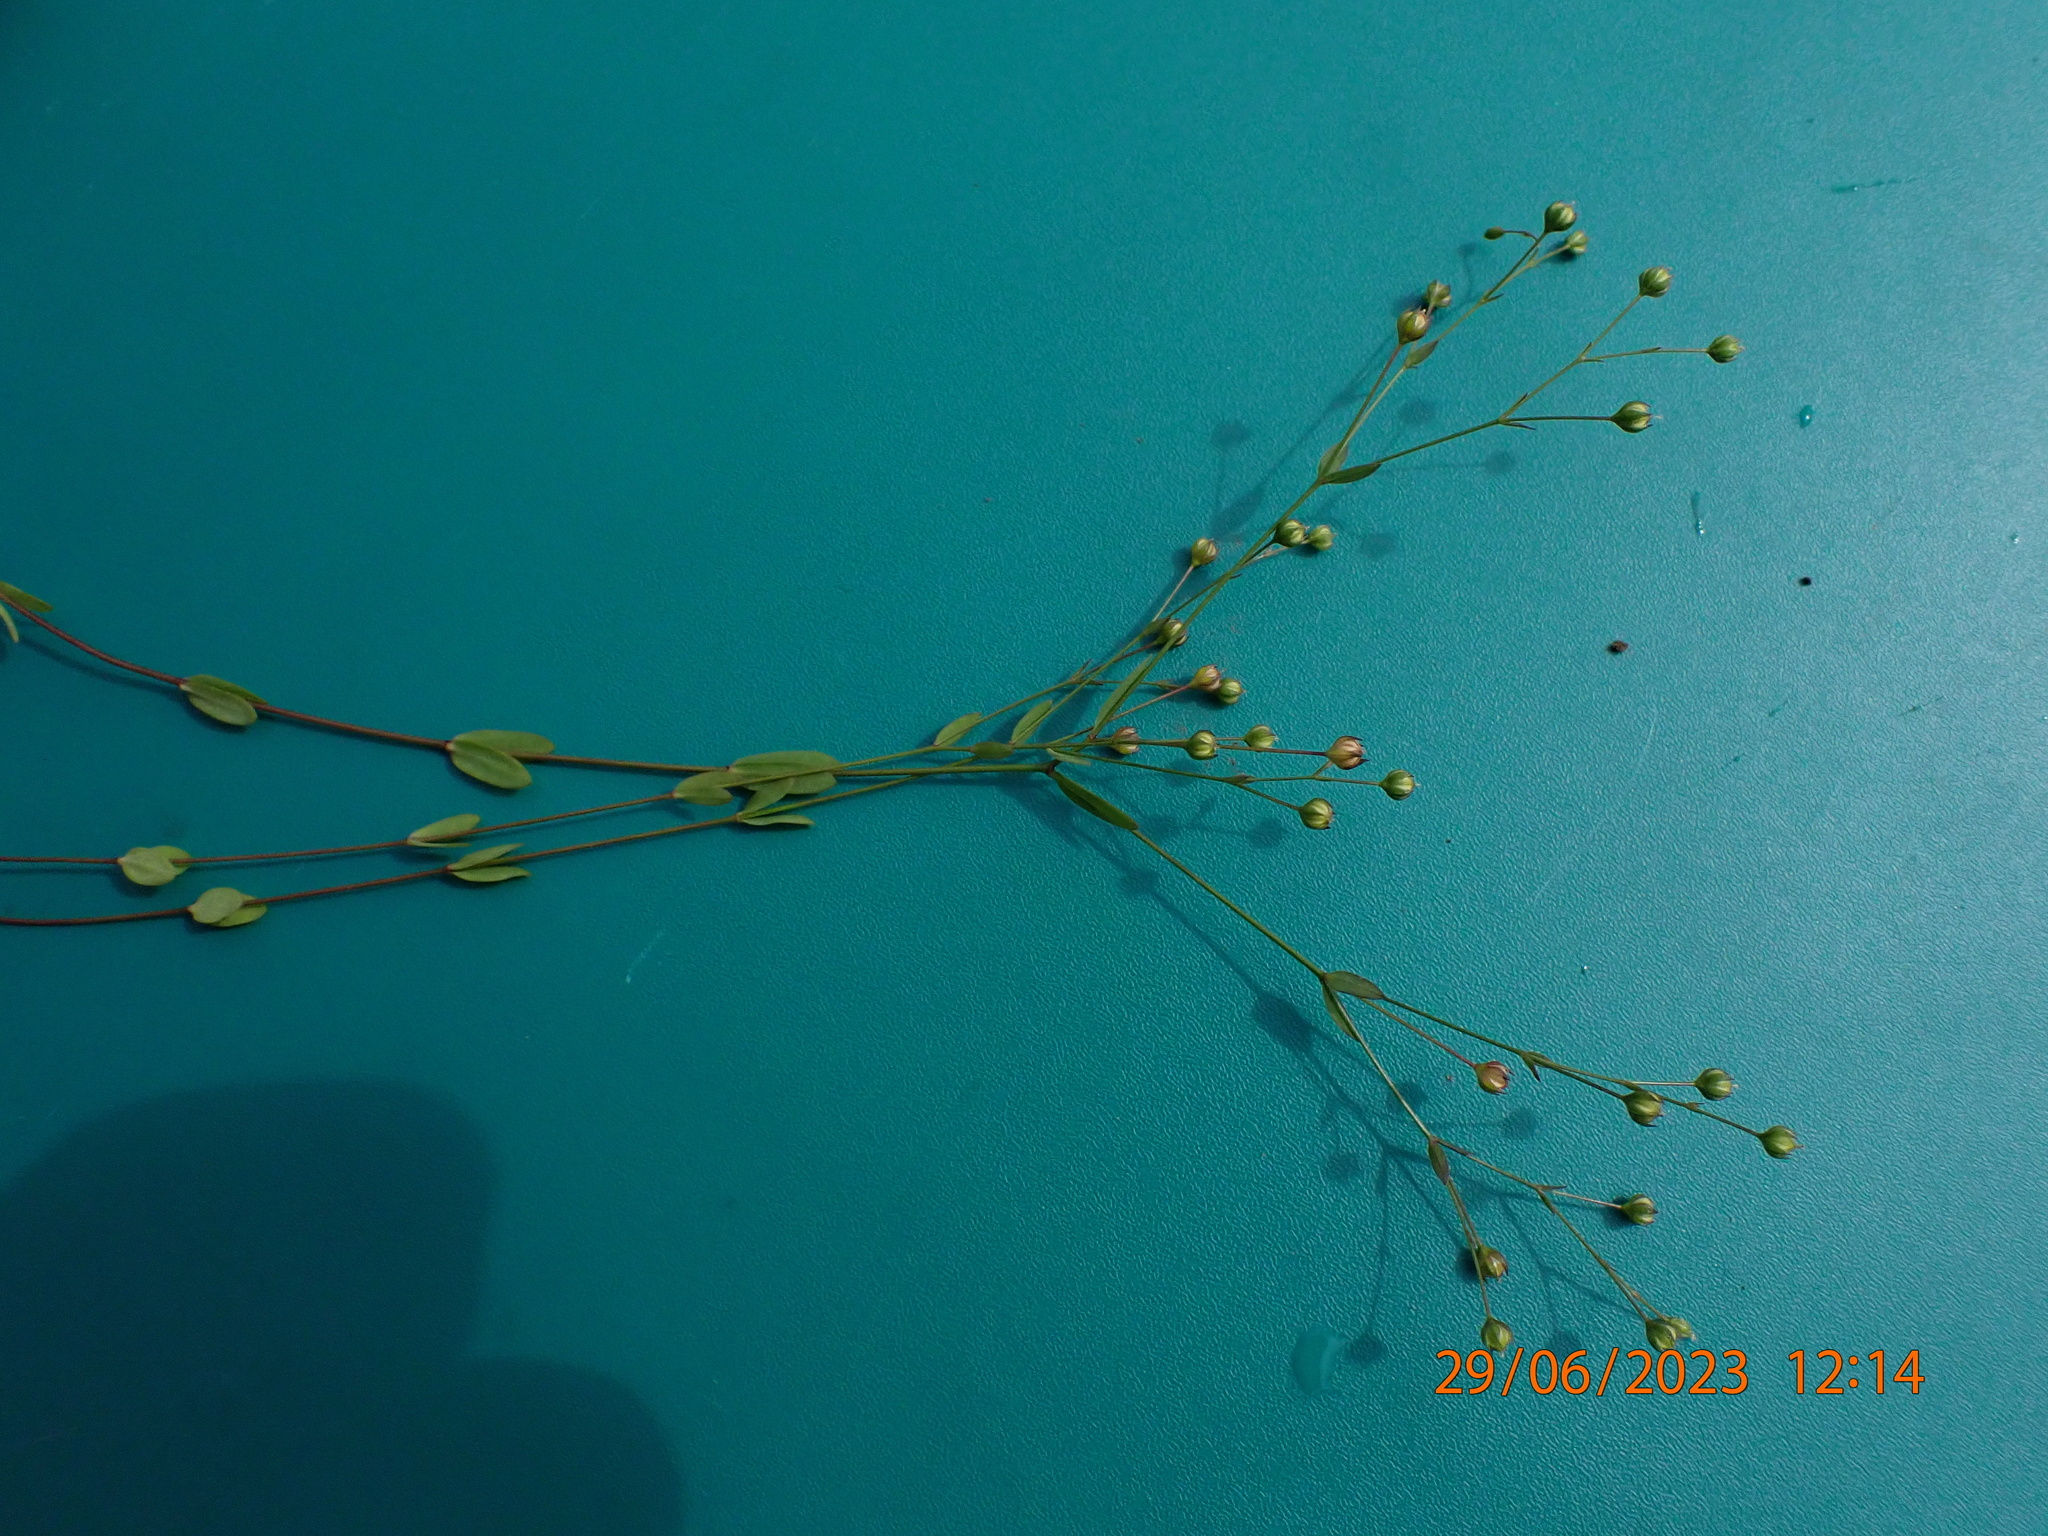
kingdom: Plantae
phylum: Tracheophyta
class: Magnoliopsida
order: Malpighiales
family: Linaceae
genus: Linum
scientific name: Linum catharticum
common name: Fairy flax
